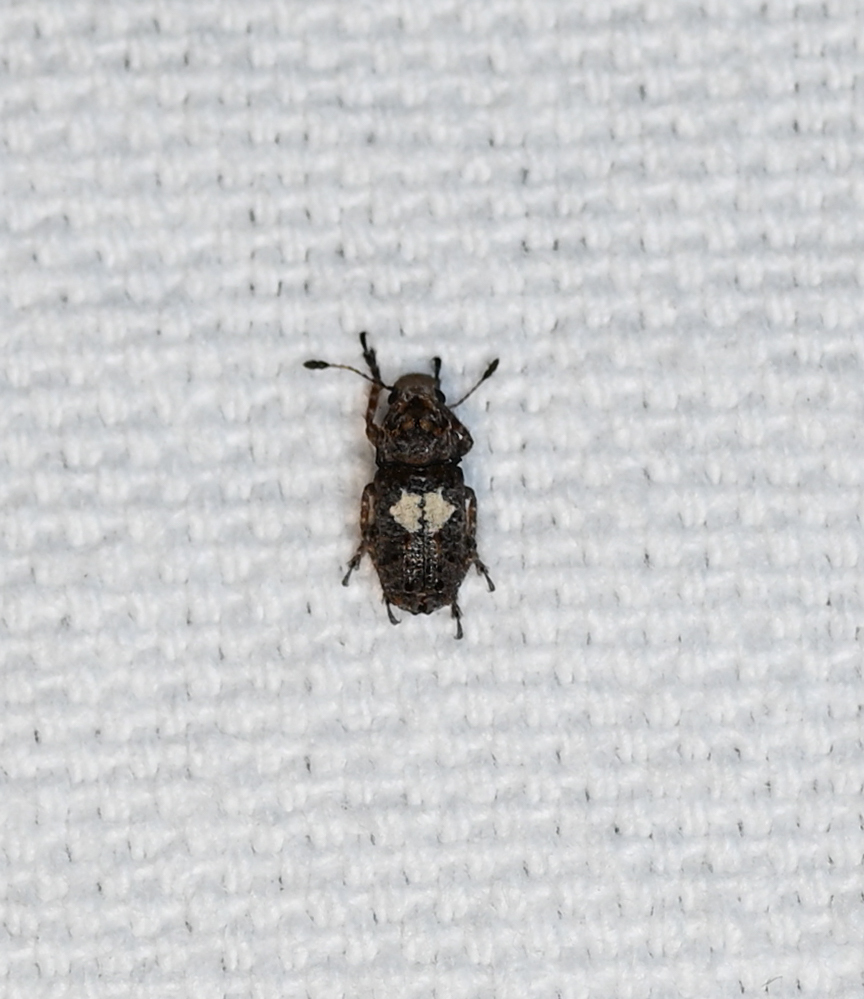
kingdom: Animalia
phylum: Arthropoda
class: Insecta
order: Coleoptera
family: Anthribidae
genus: Toxonotus
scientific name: Toxonotus cornutus
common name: Fungus weevil
